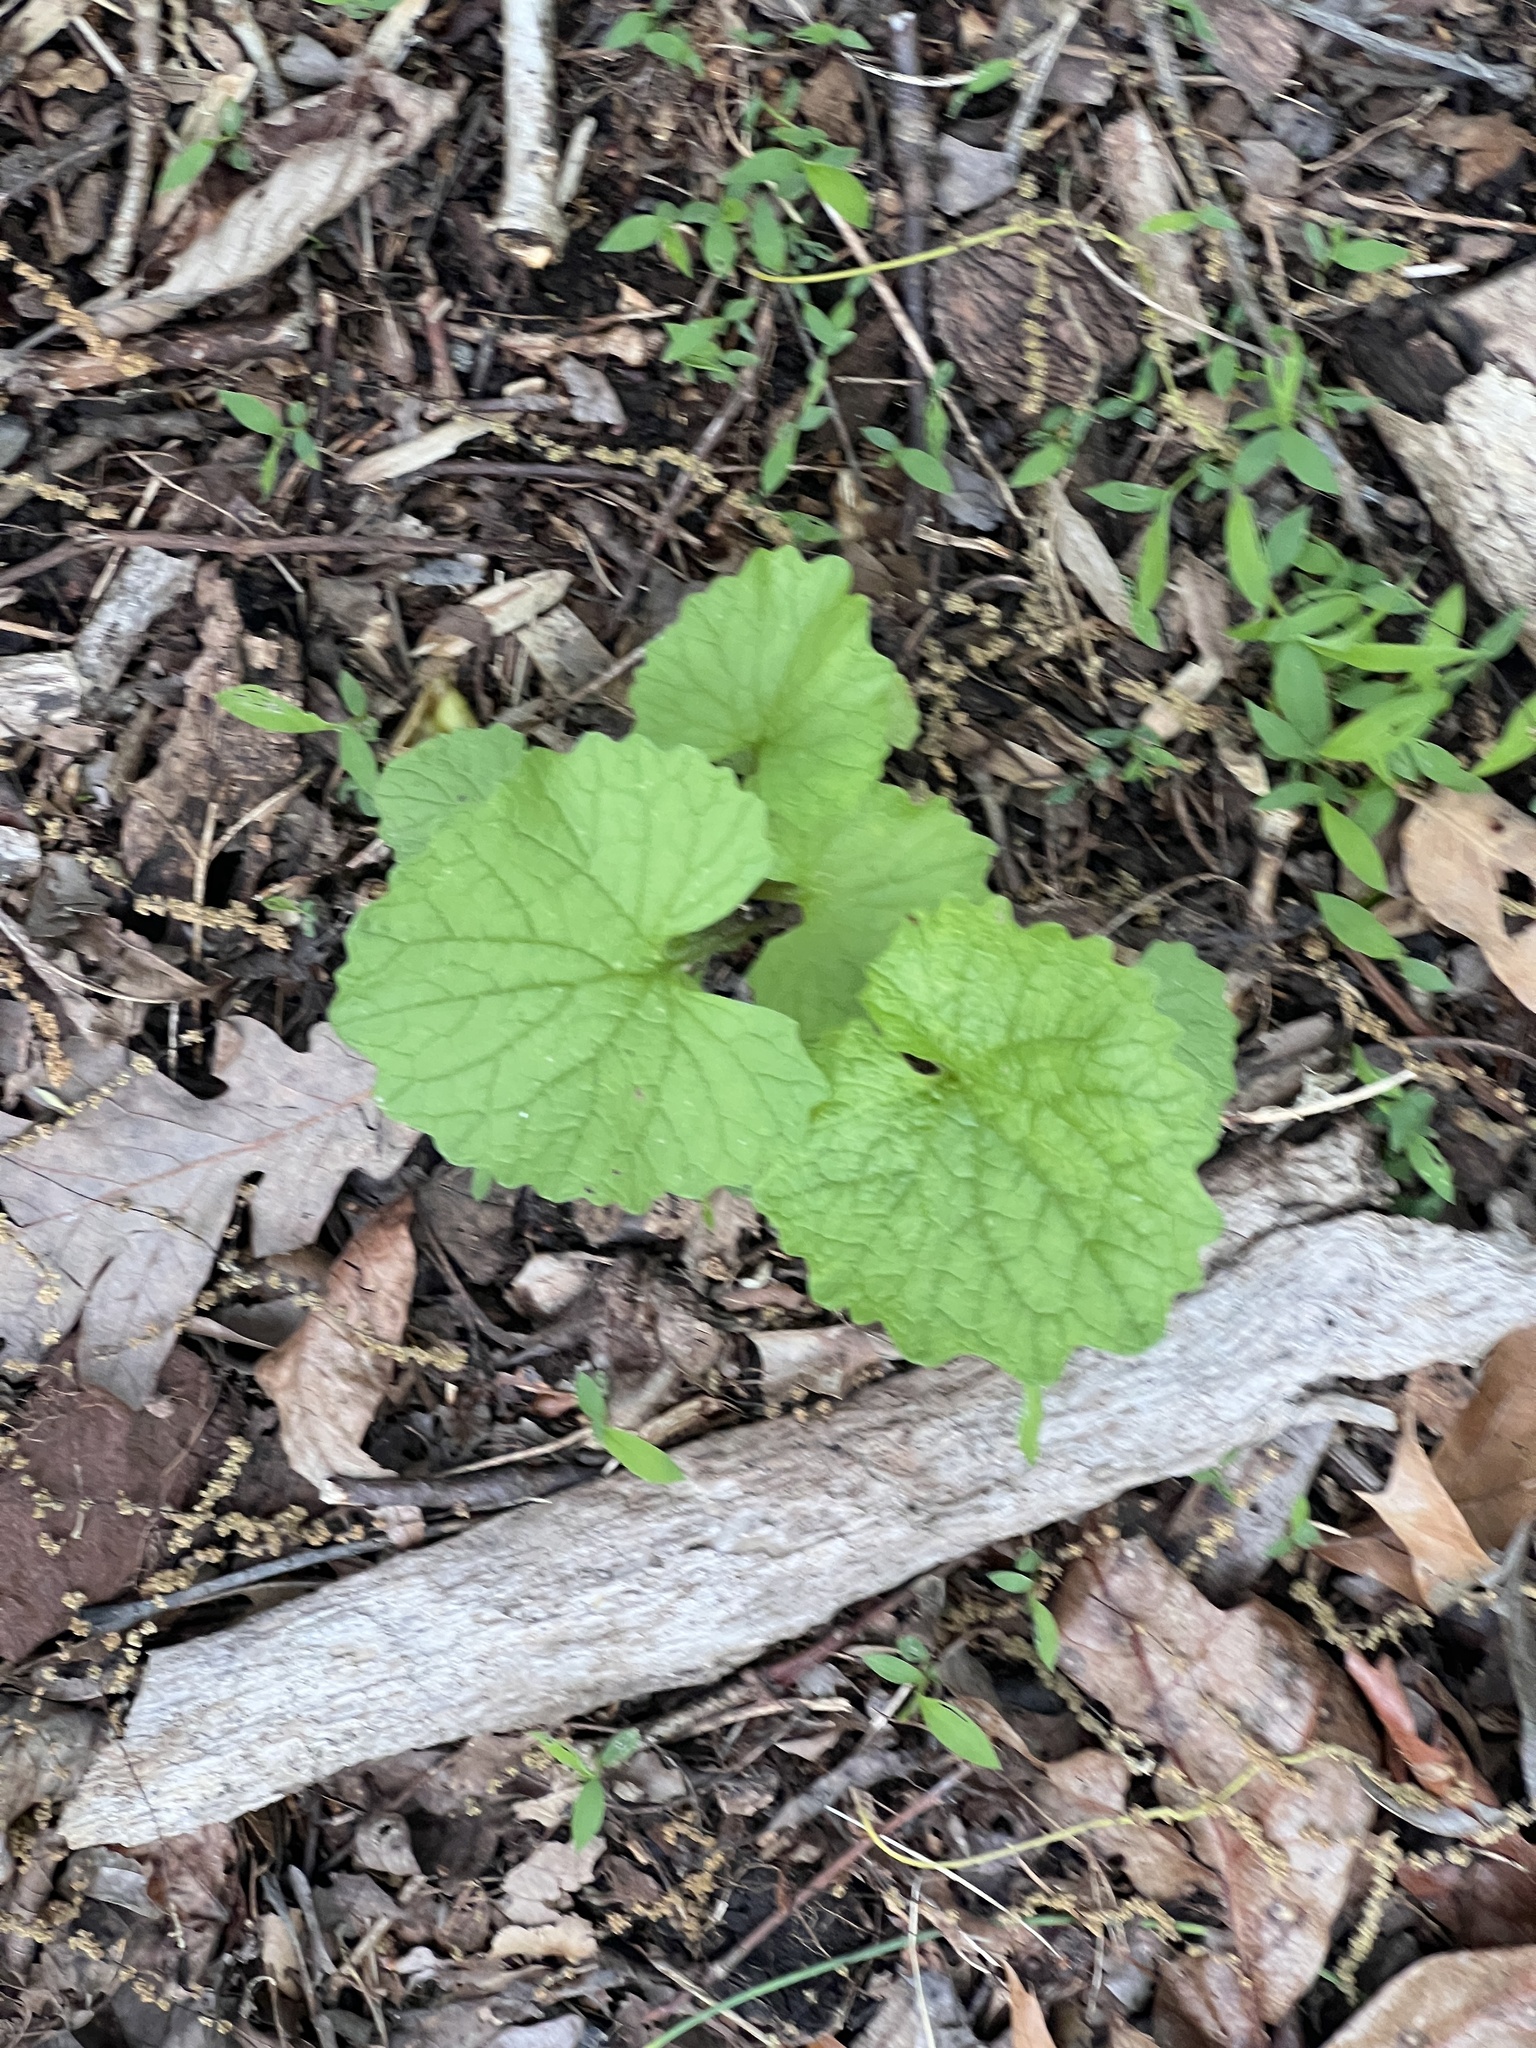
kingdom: Plantae
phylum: Tracheophyta
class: Magnoliopsida
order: Brassicales
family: Brassicaceae
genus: Alliaria
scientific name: Alliaria petiolata
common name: Garlic mustard
